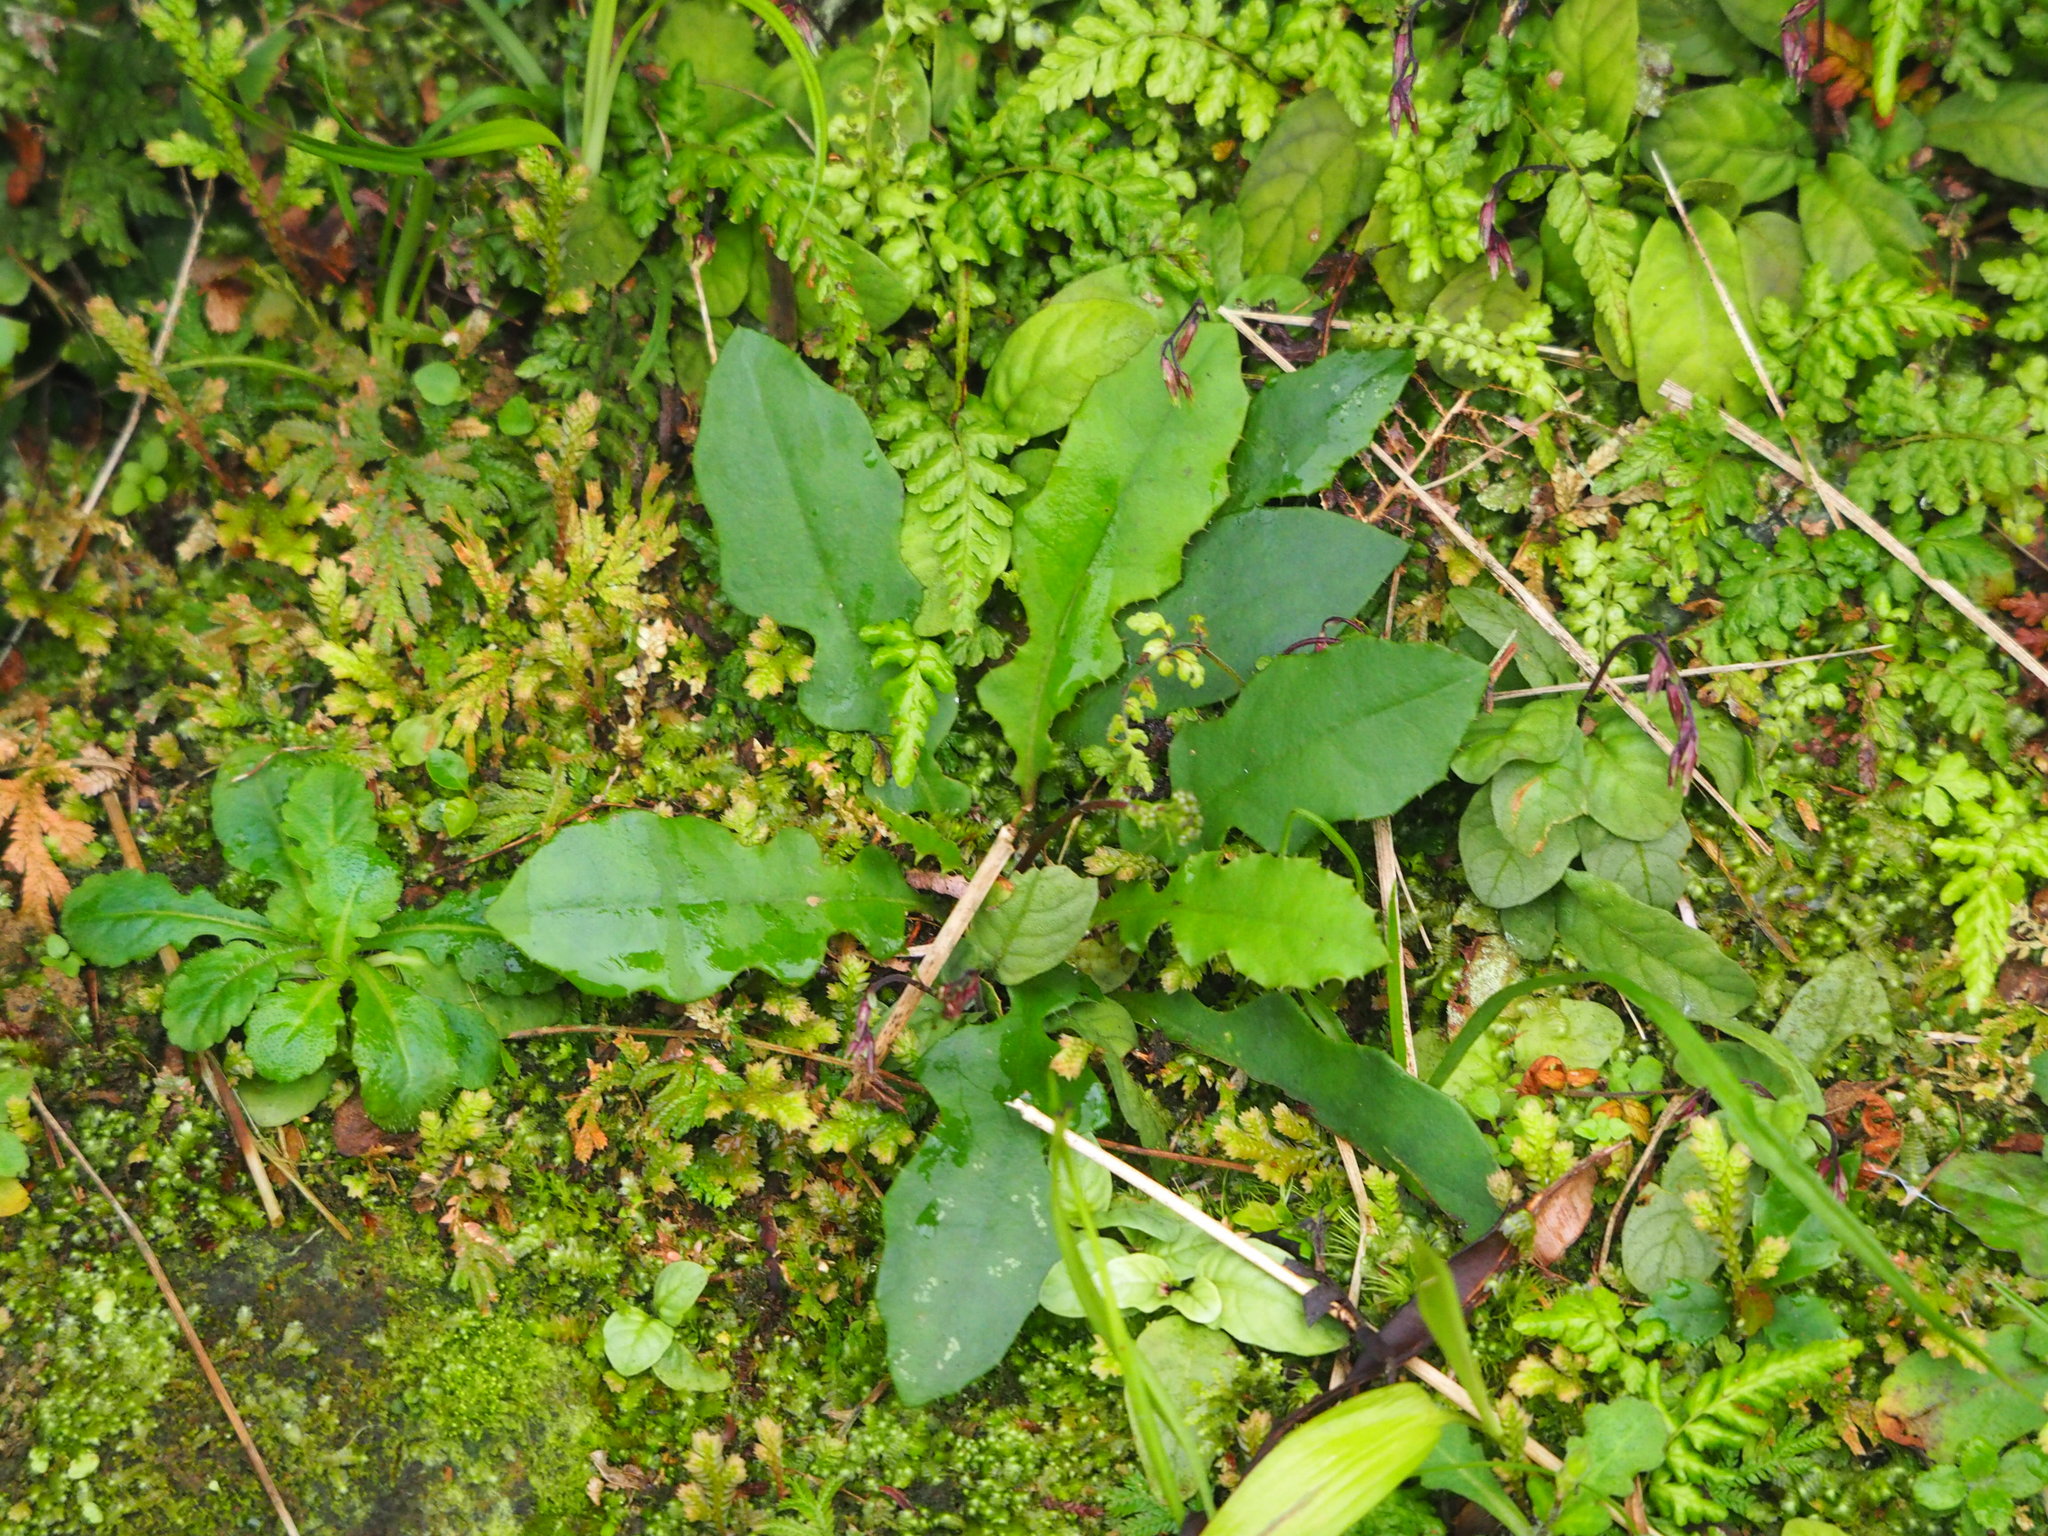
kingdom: Plantae
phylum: Tracheophyta
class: Magnoliopsida
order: Asterales
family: Asteraceae
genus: Ixeridium
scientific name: Ixeridium laevigatum
